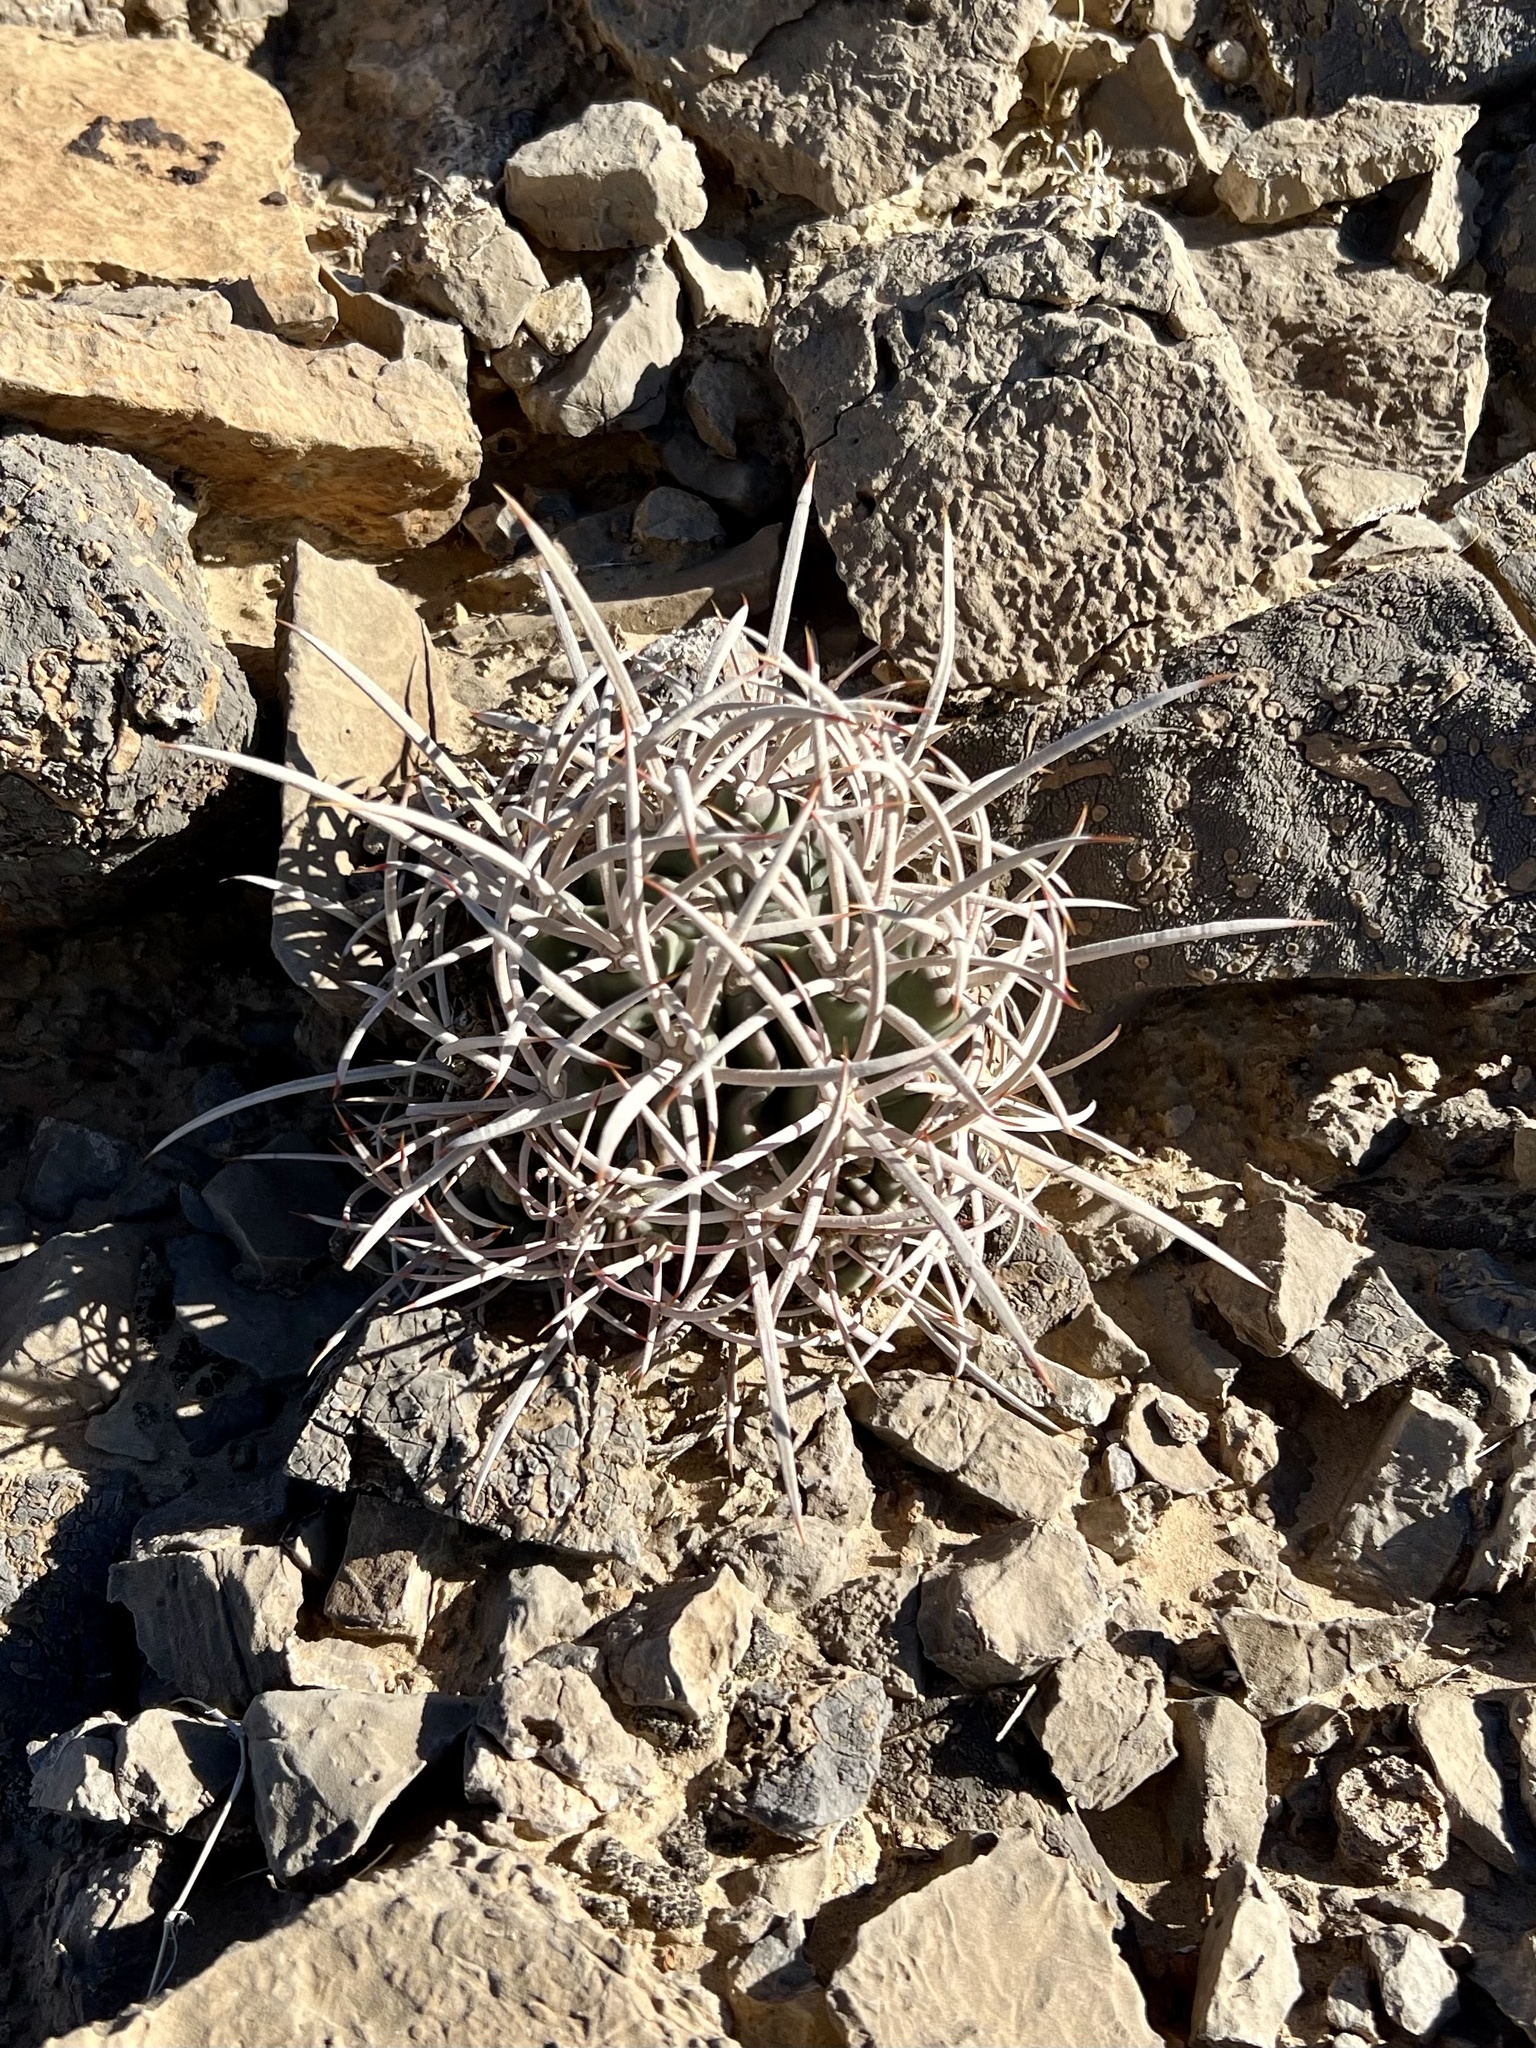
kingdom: Plantae
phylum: Tracheophyta
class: Magnoliopsida
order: Caryophyllales
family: Cactaceae
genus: Echinocactus
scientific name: Echinocactus polycephalus
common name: Cottontop cactus
